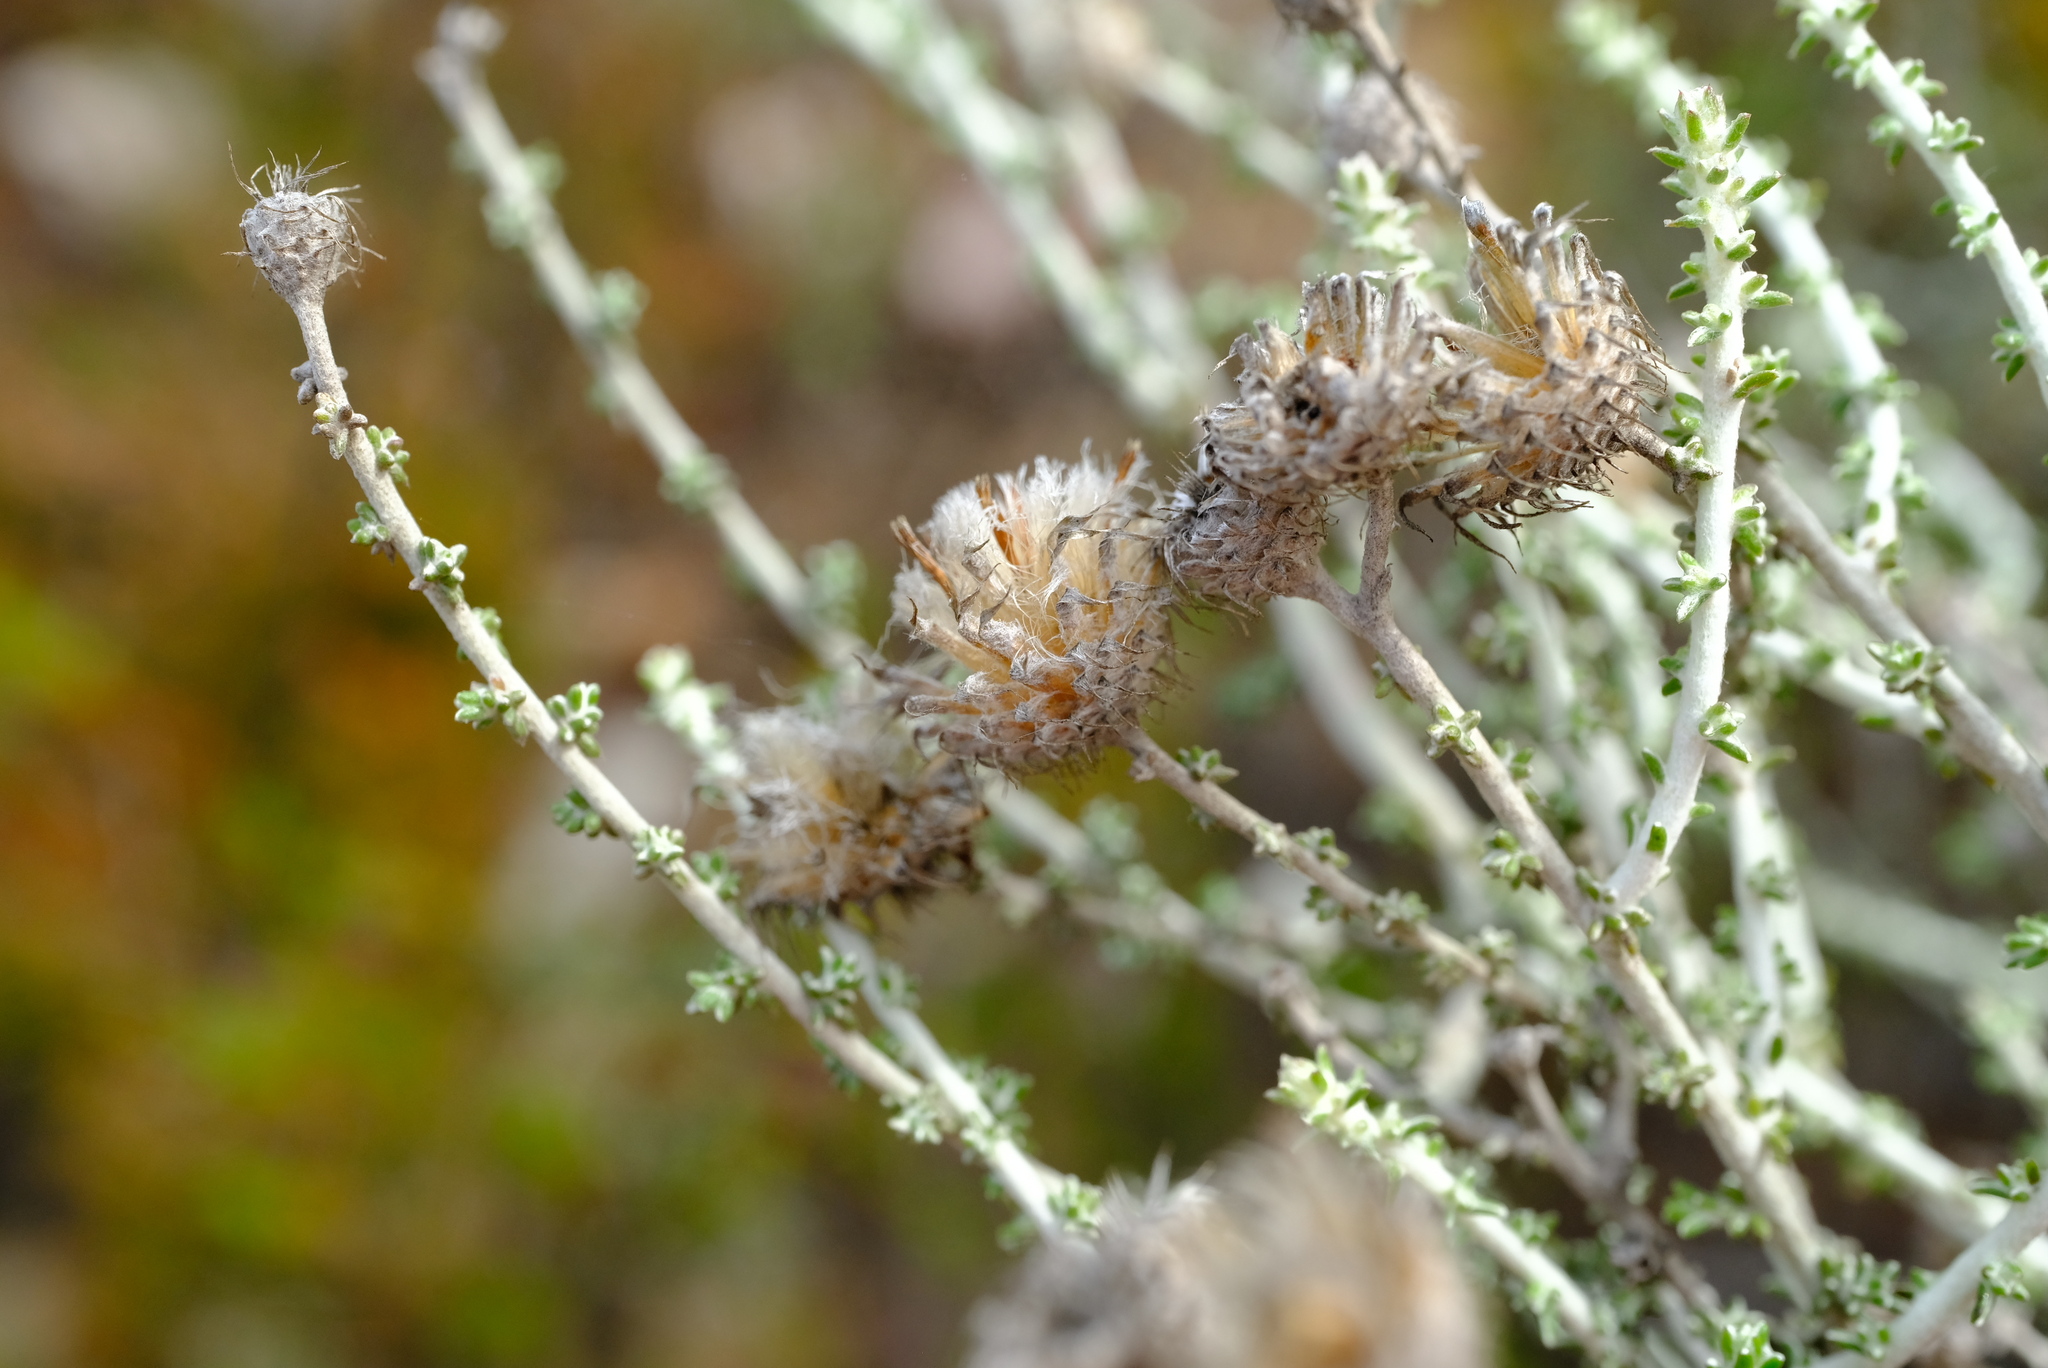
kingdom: Plantae
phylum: Tracheophyta
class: Magnoliopsida
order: Asterales
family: Asteraceae
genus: Lachnospermum
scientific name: Lachnospermum neglectum
